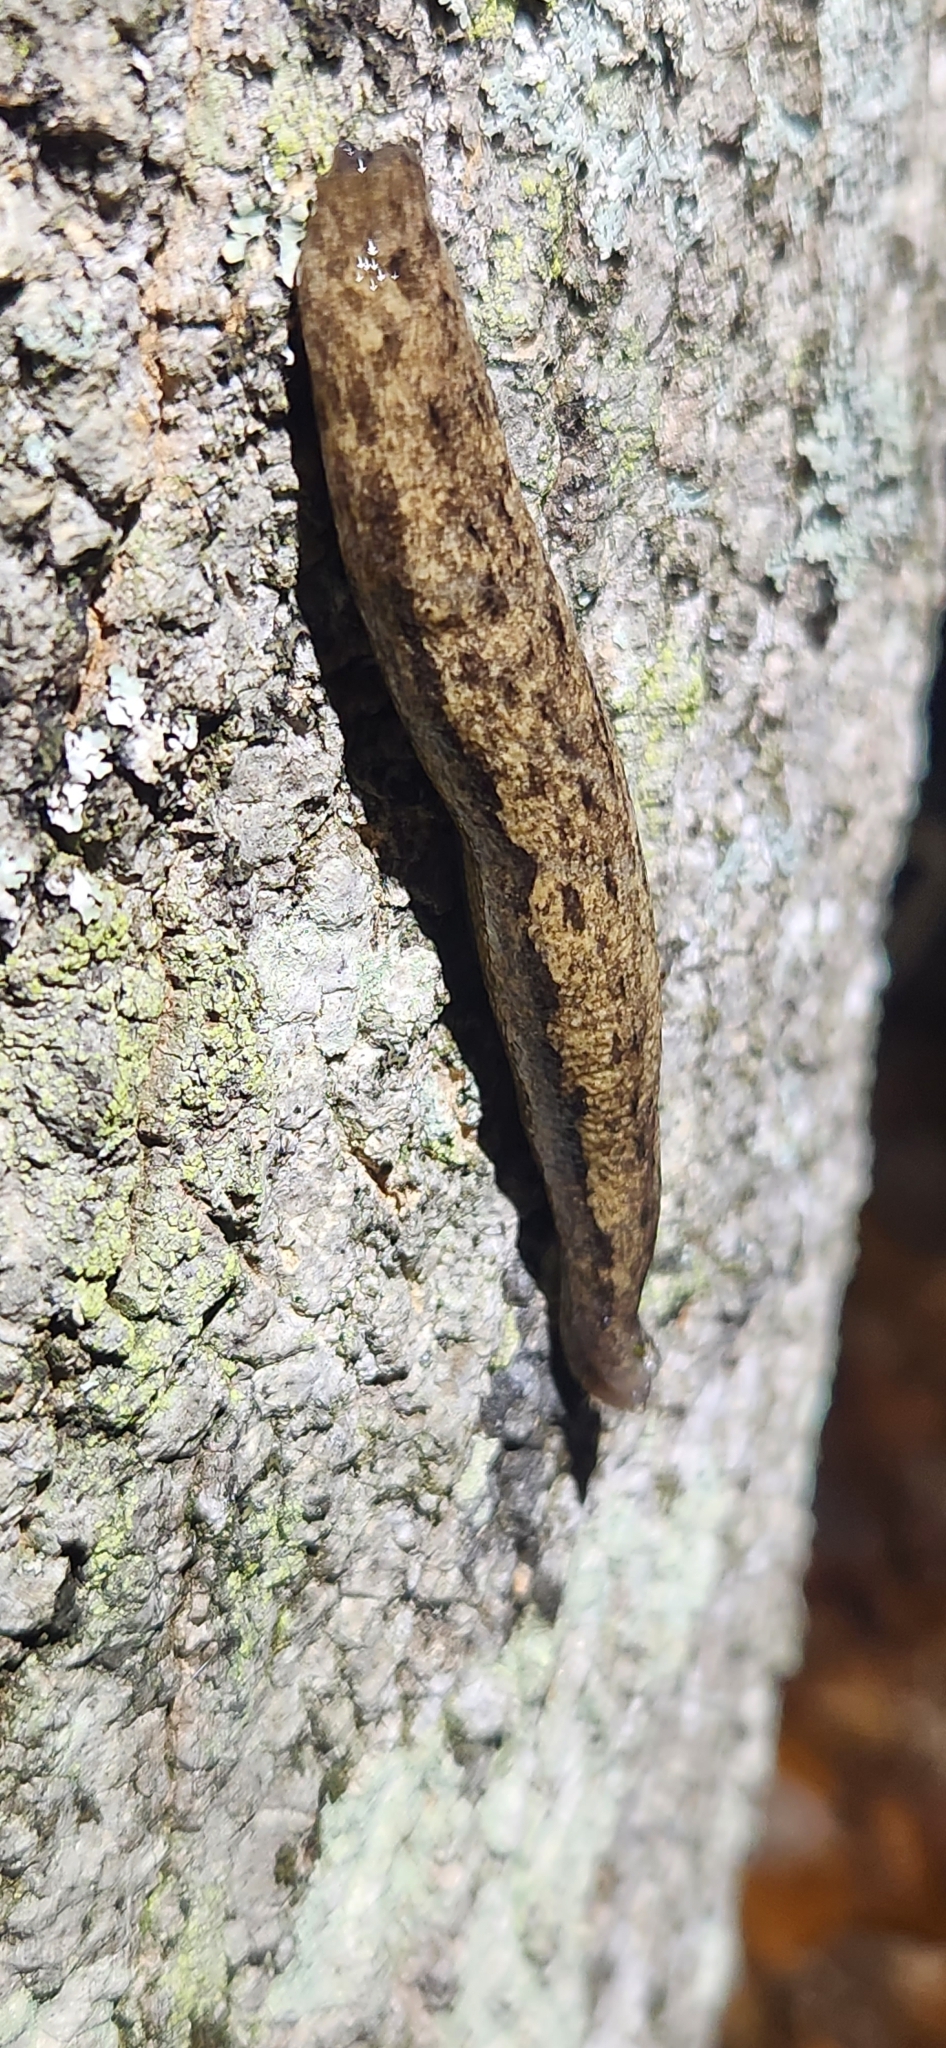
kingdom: Animalia
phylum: Mollusca
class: Gastropoda
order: Stylommatophora
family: Philomycidae
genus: Megapallifera
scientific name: Megapallifera mutabilis
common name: Changeable mantleslug
